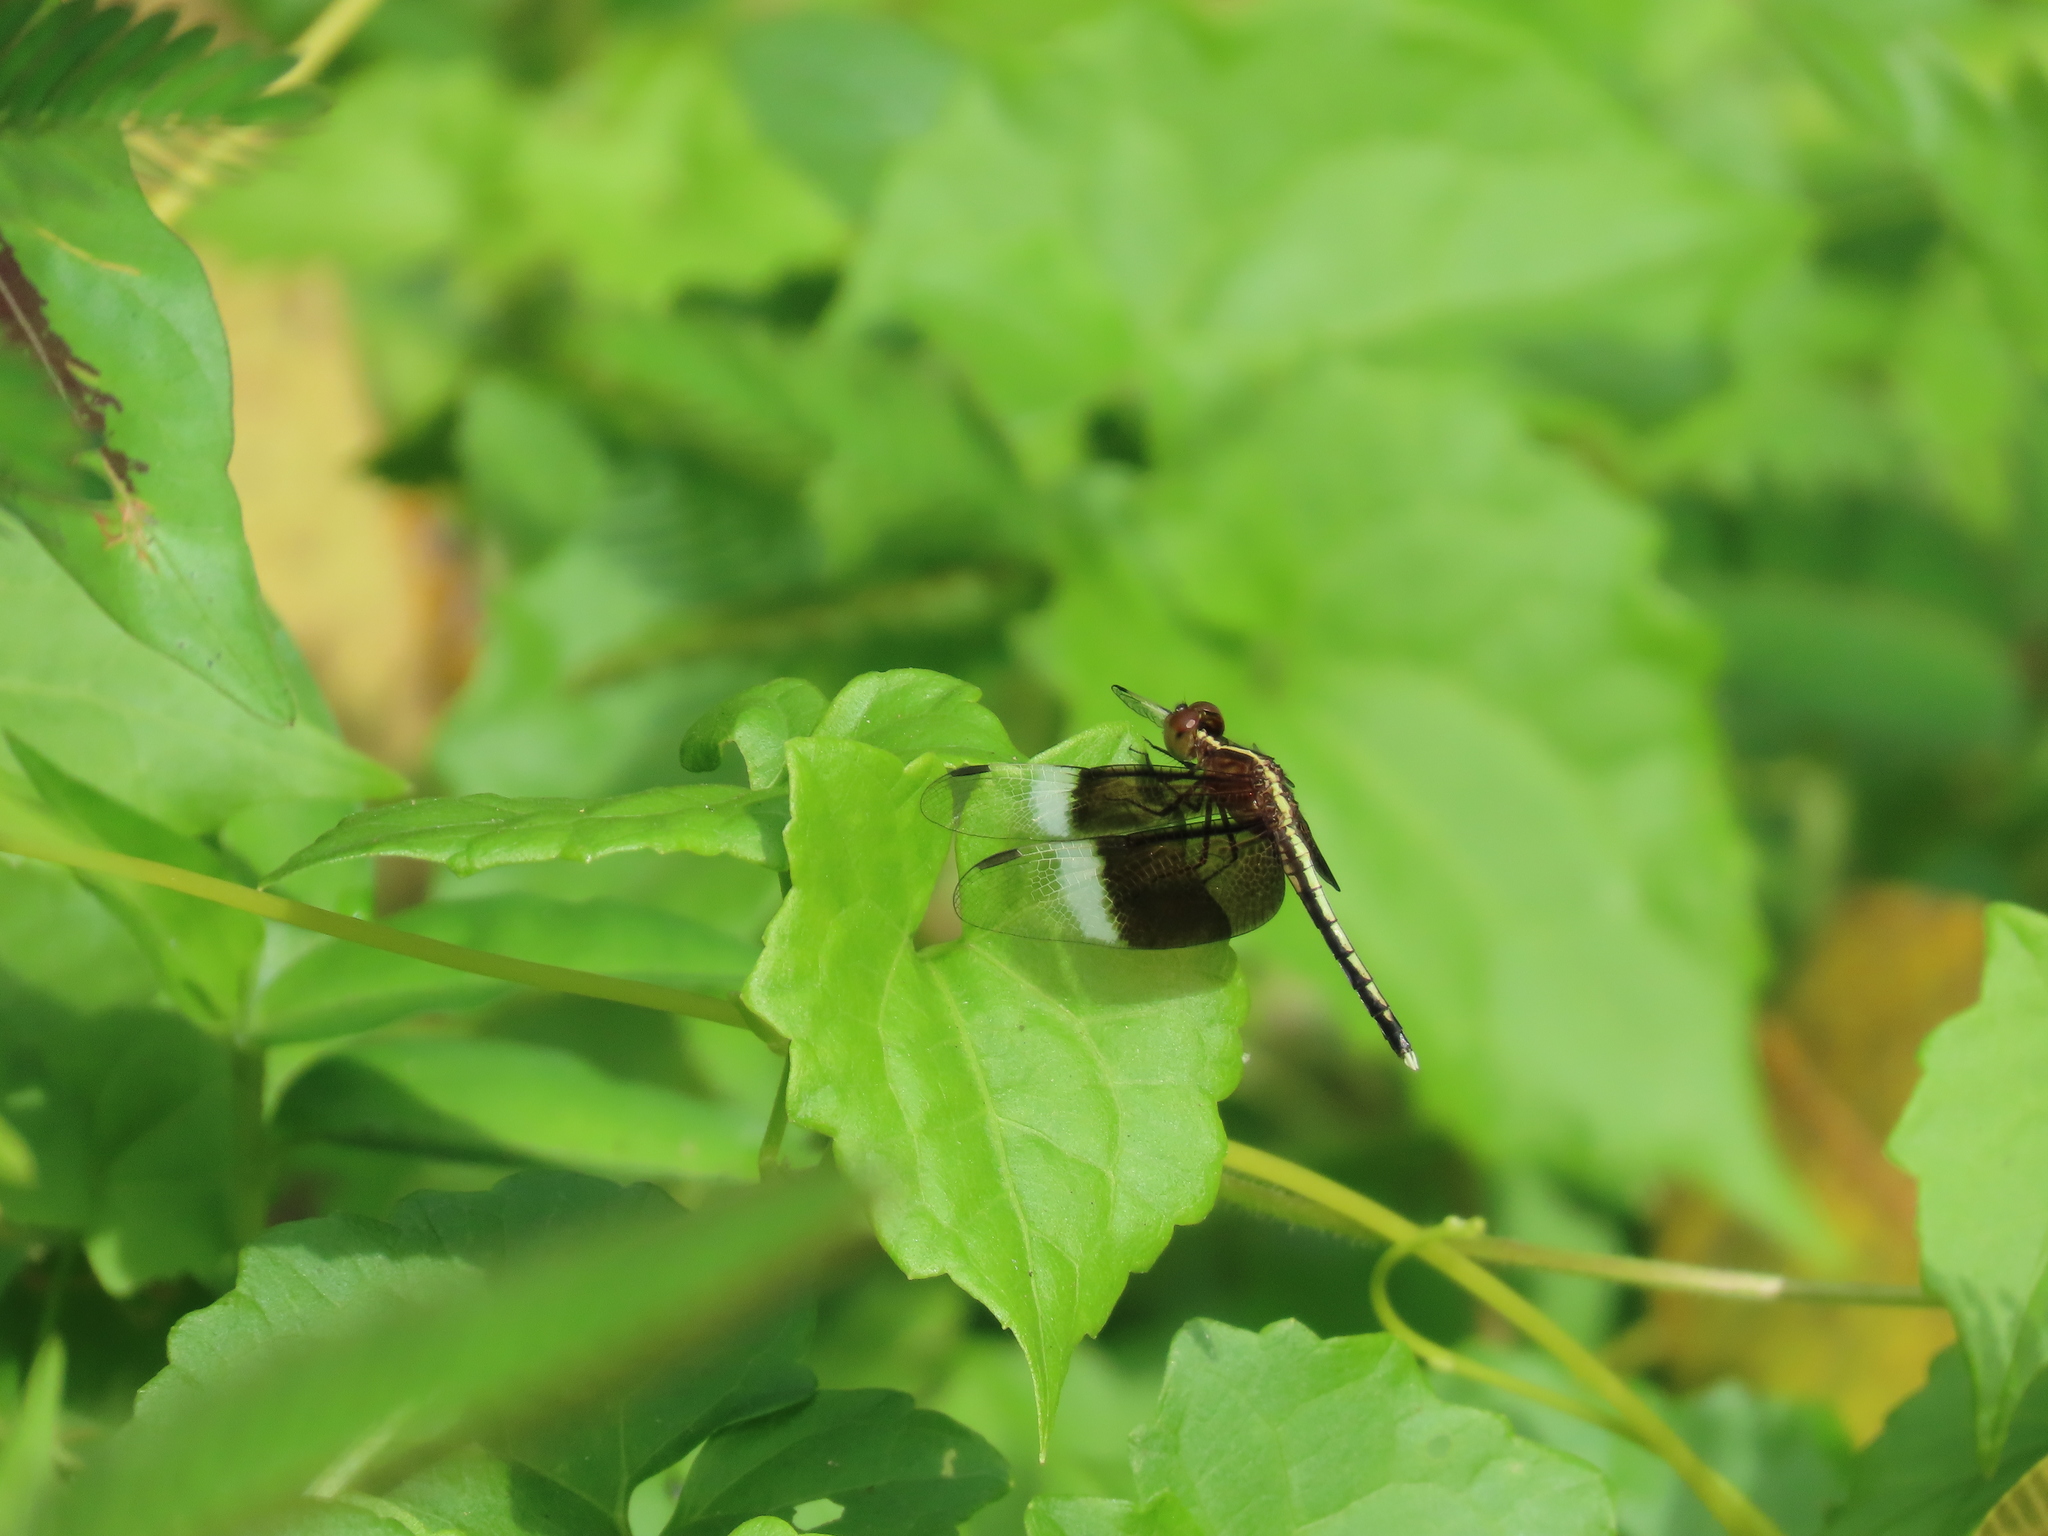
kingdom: Animalia
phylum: Arthropoda
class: Insecta
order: Odonata
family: Libellulidae
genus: Neurothemis
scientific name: Neurothemis tullia
